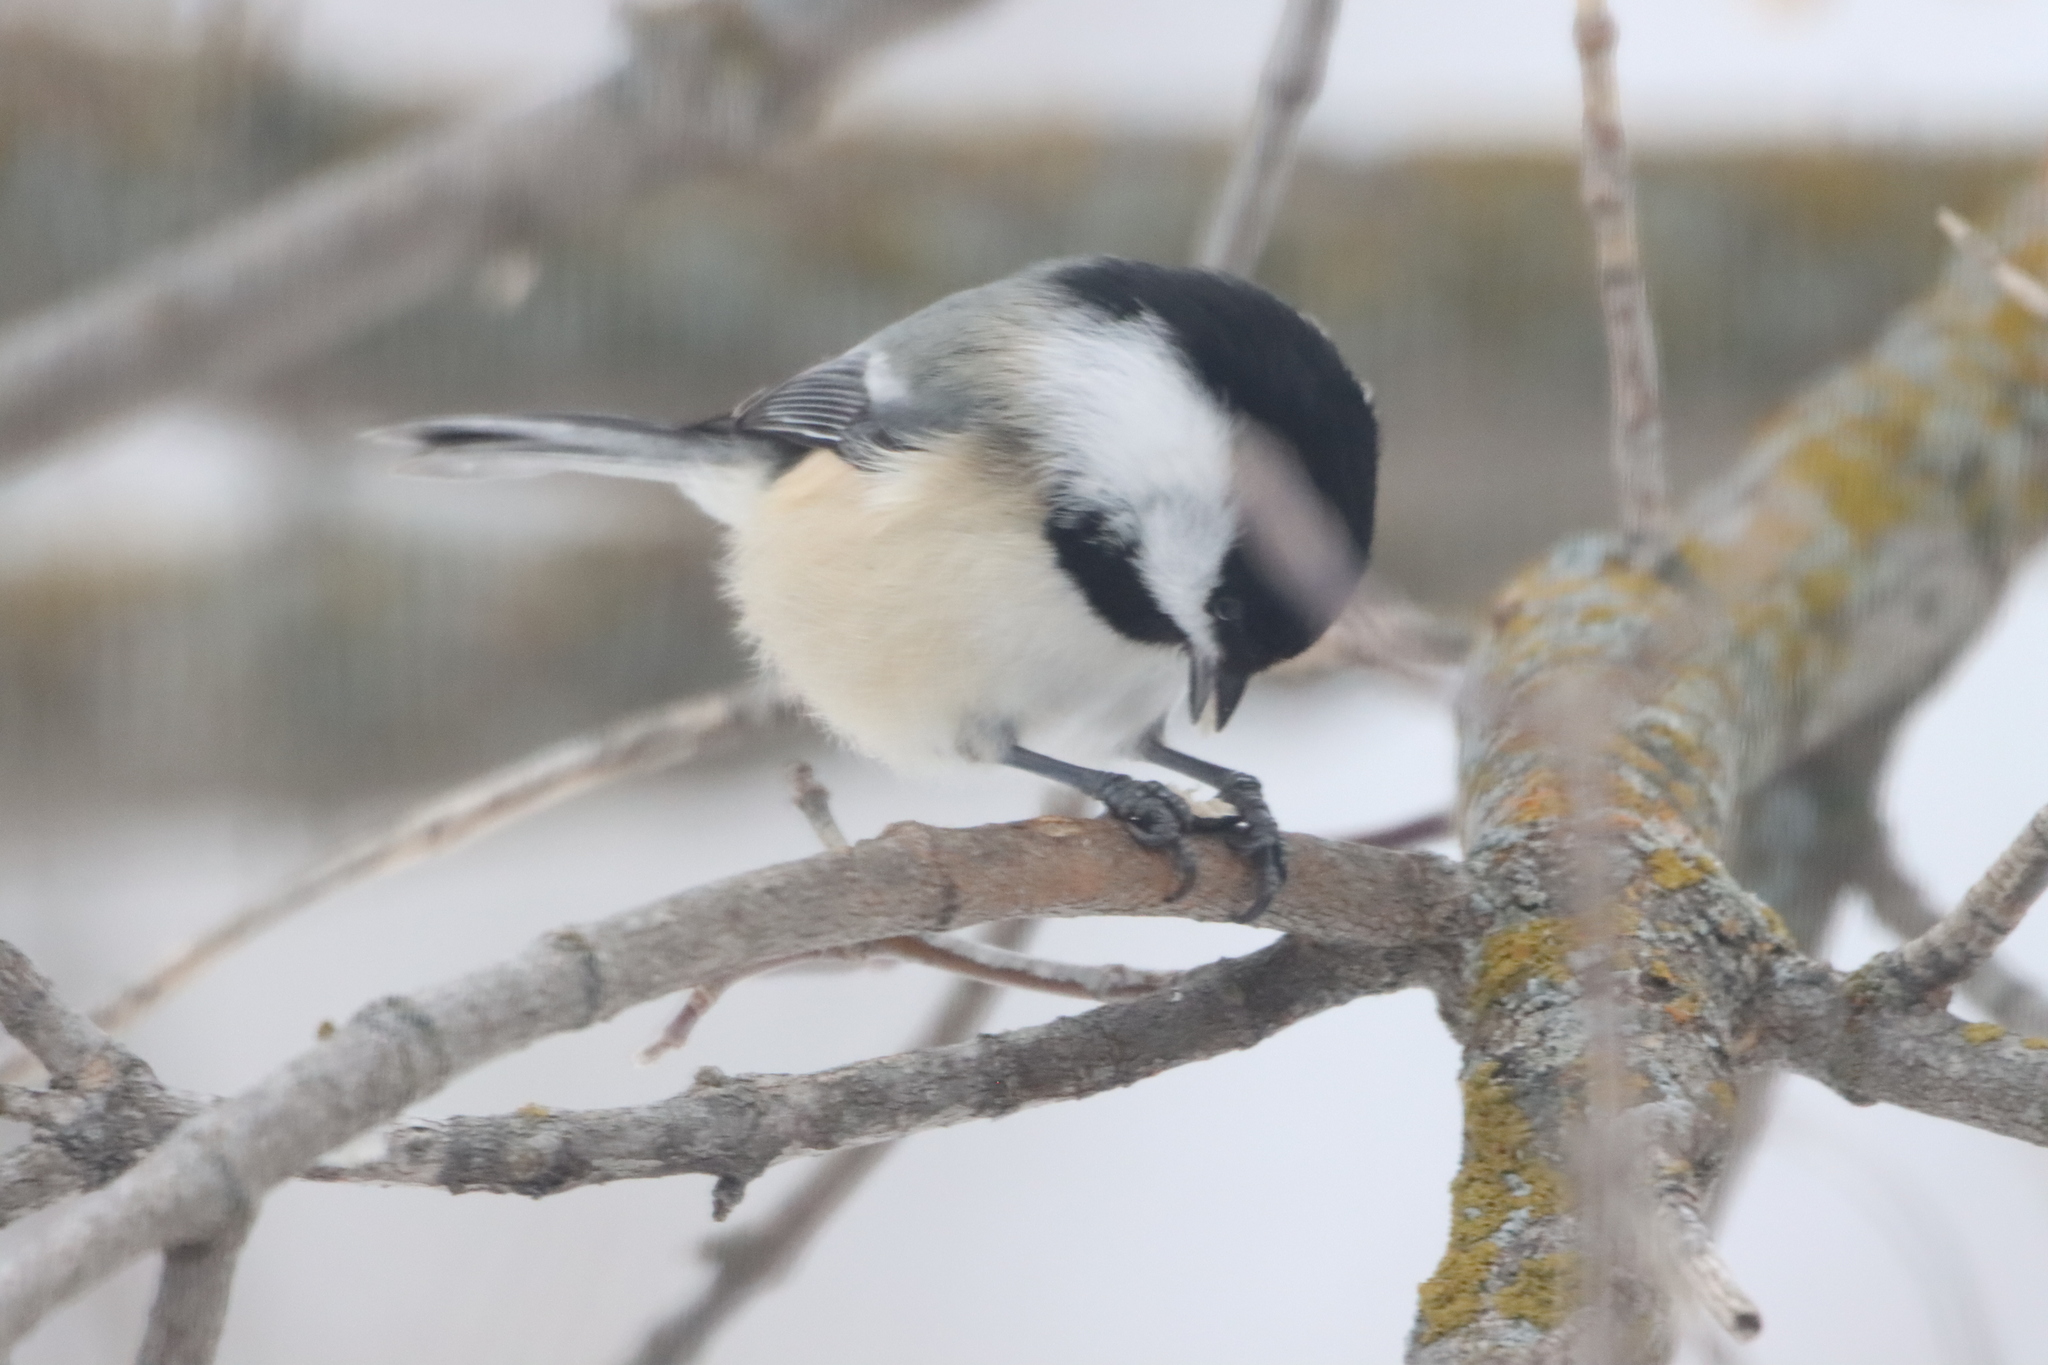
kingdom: Animalia
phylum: Chordata
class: Aves
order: Passeriformes
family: Paridae
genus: Poecile
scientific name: Poecile atricapillus
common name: Black-capped chickadee
